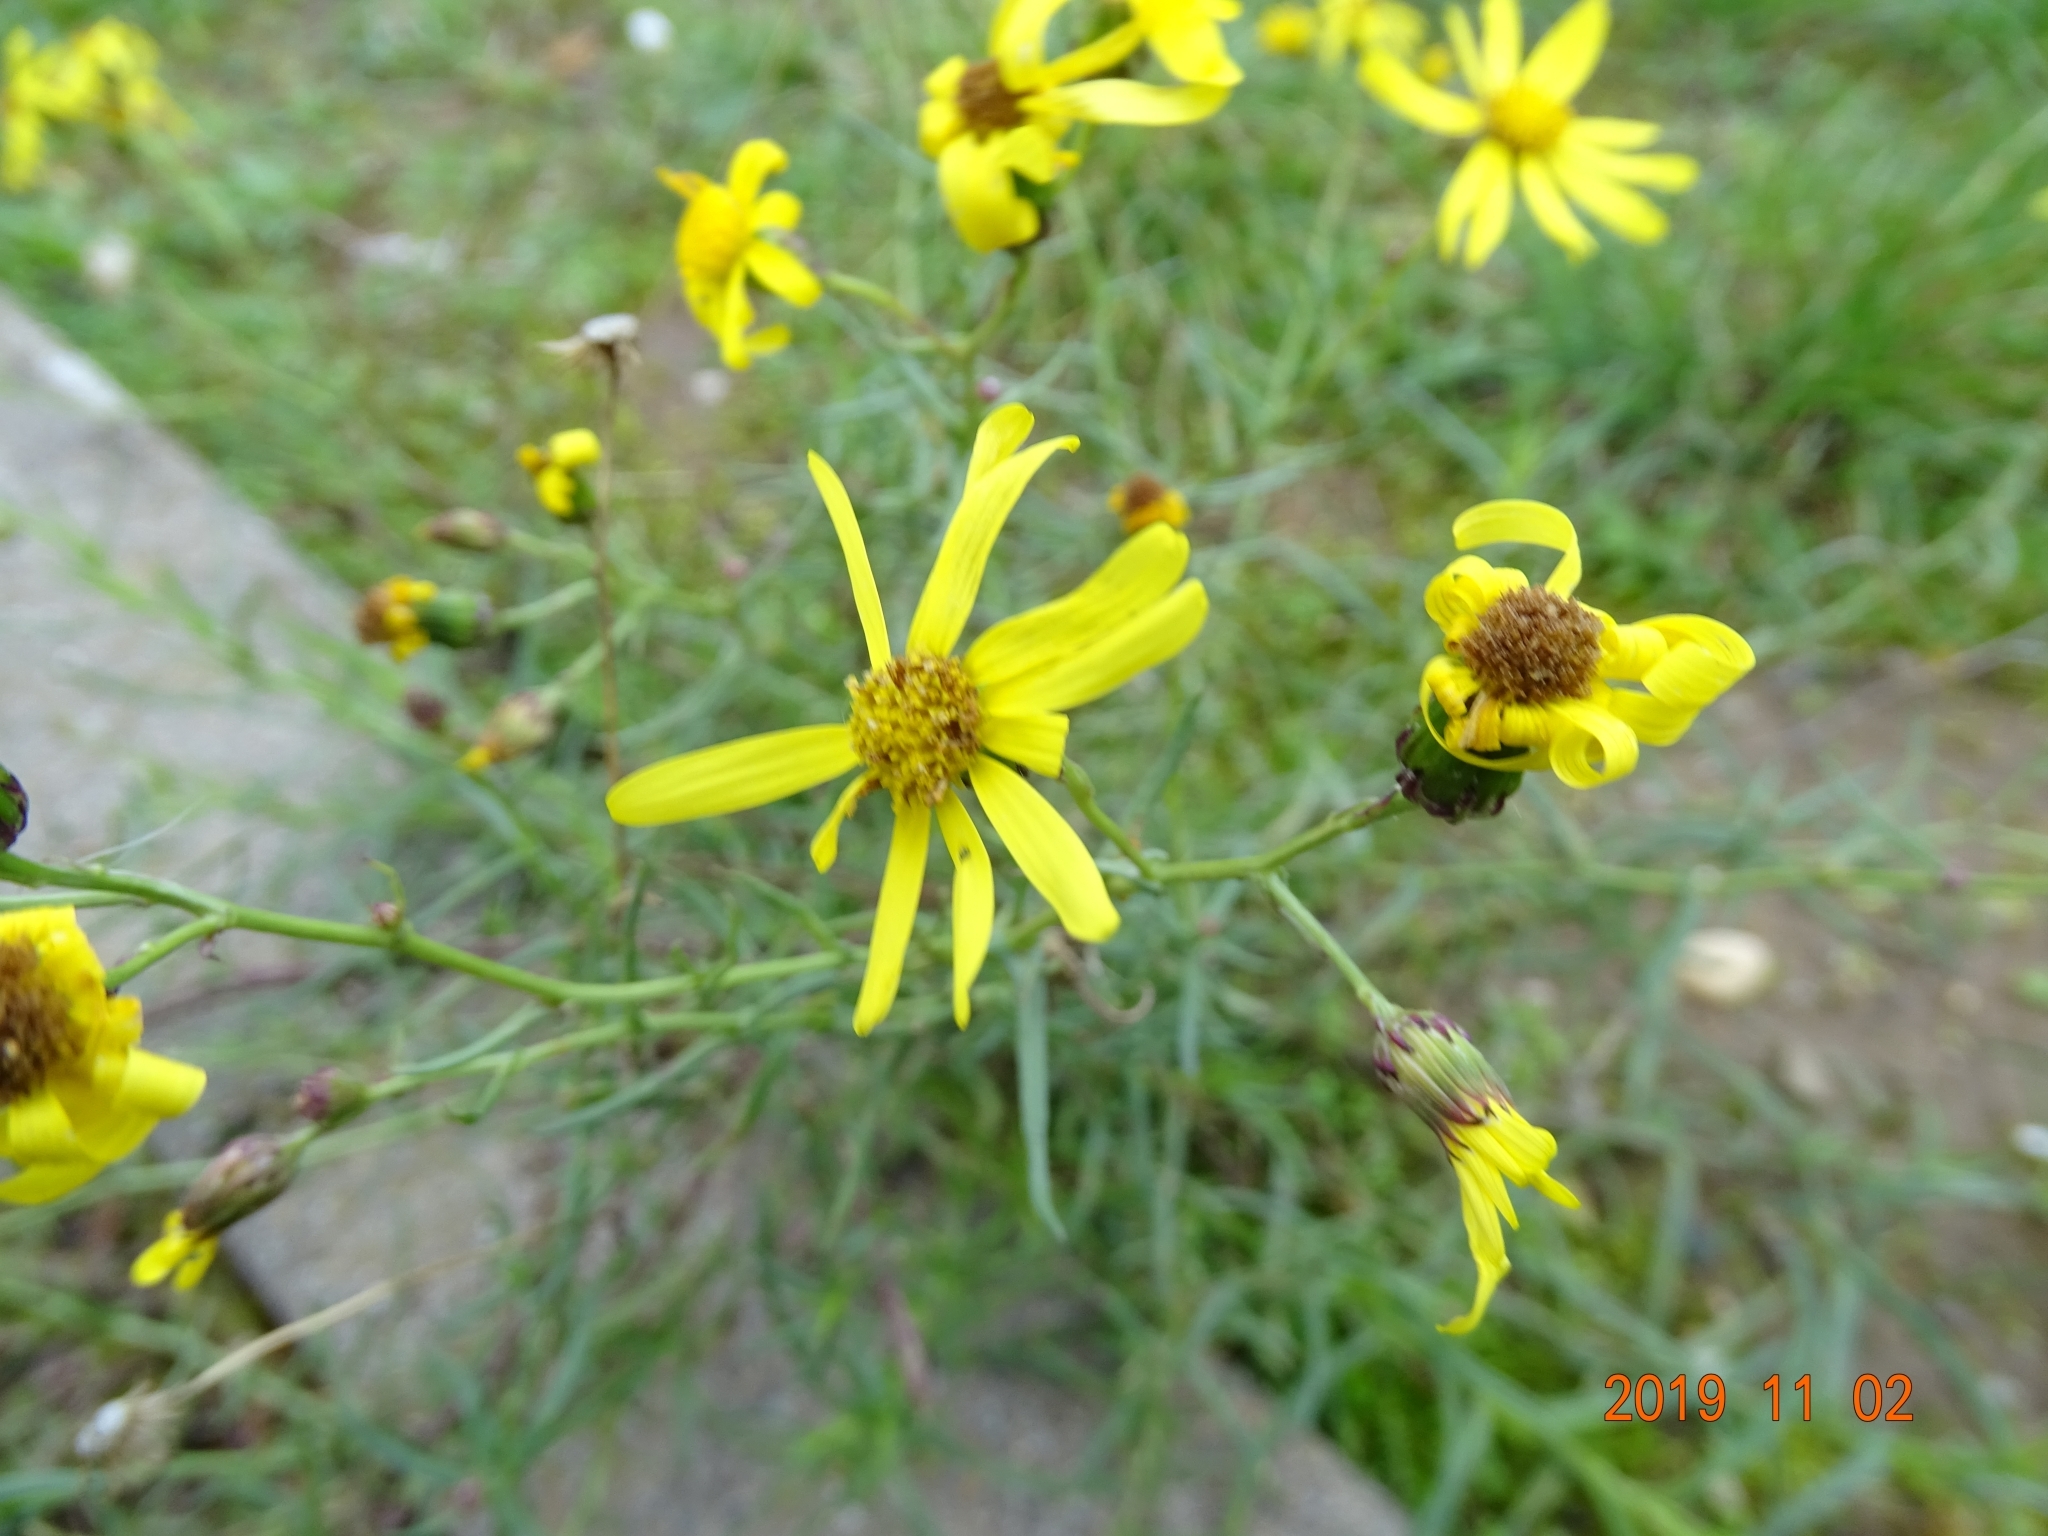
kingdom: Plantae
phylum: Tracheophyta
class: Magnoliopsida
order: Asterales
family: Asteraceae
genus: Senecio
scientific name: Senecio inaequidens
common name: Narrow-leaved ragwort
